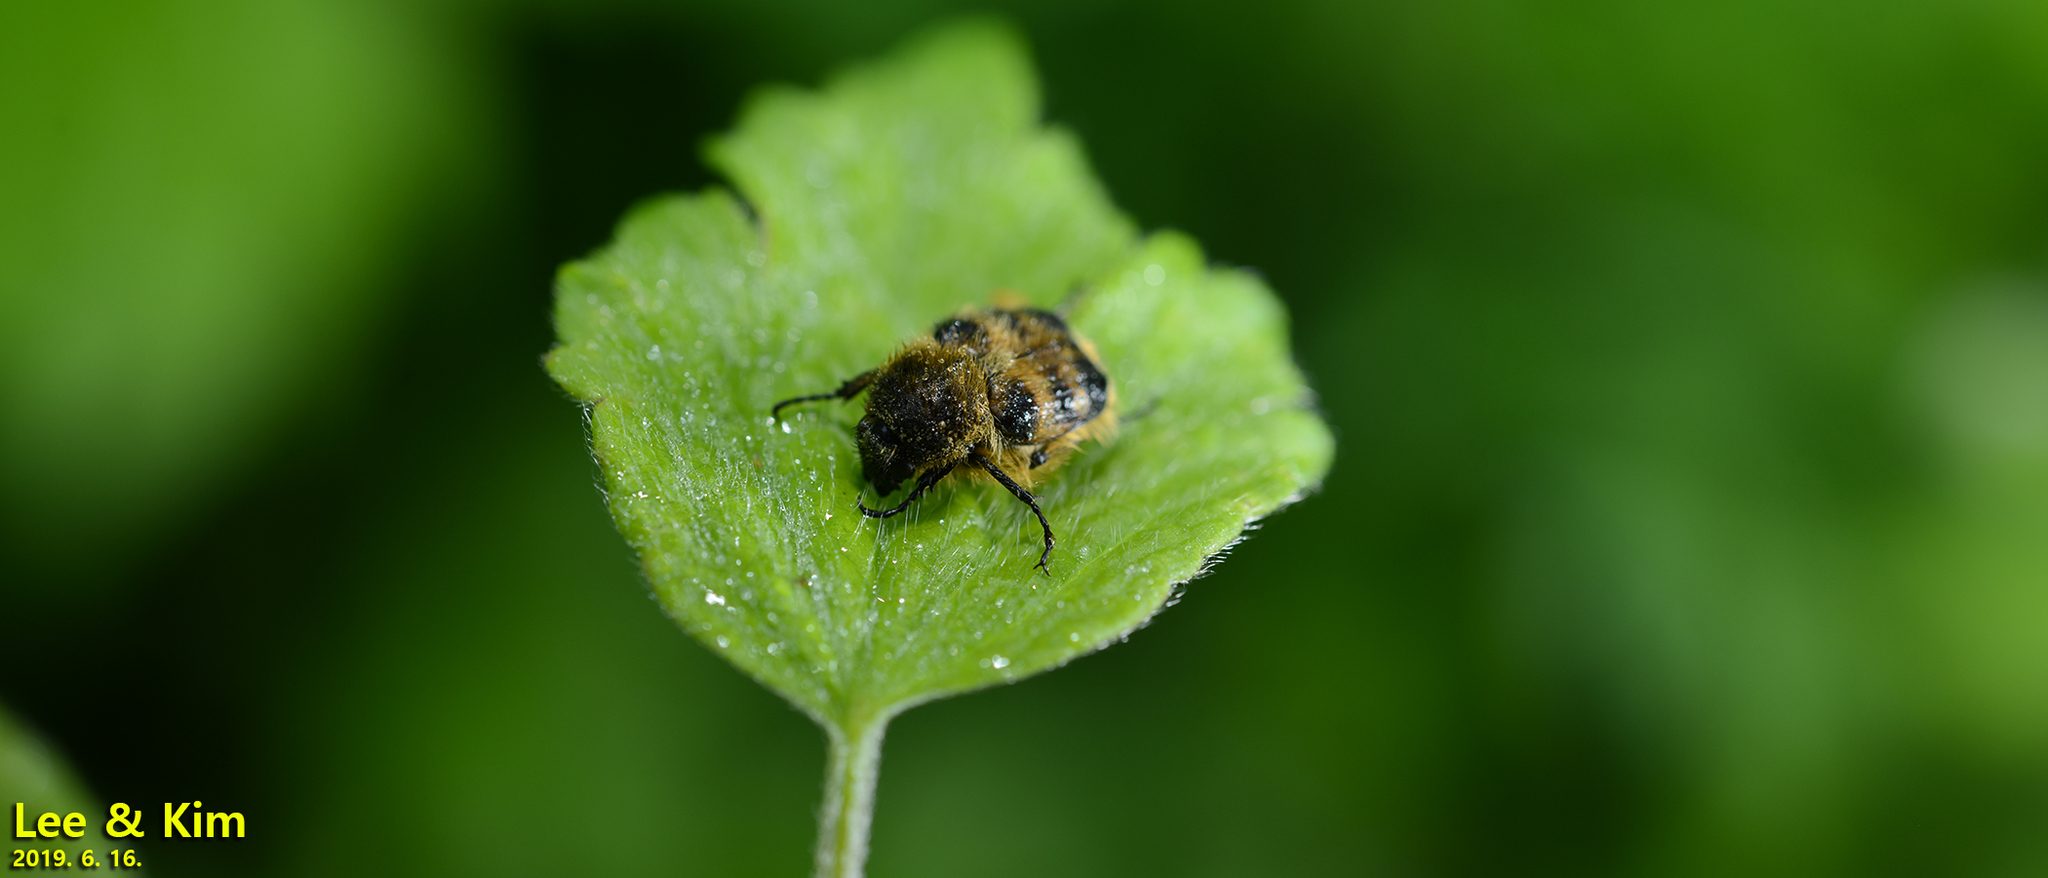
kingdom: Animalia
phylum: Arthropoda
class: Insecta
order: Coleoptera
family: Scarabaeidae
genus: Lasiotrichius
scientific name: Lasiotrichius succinctus
